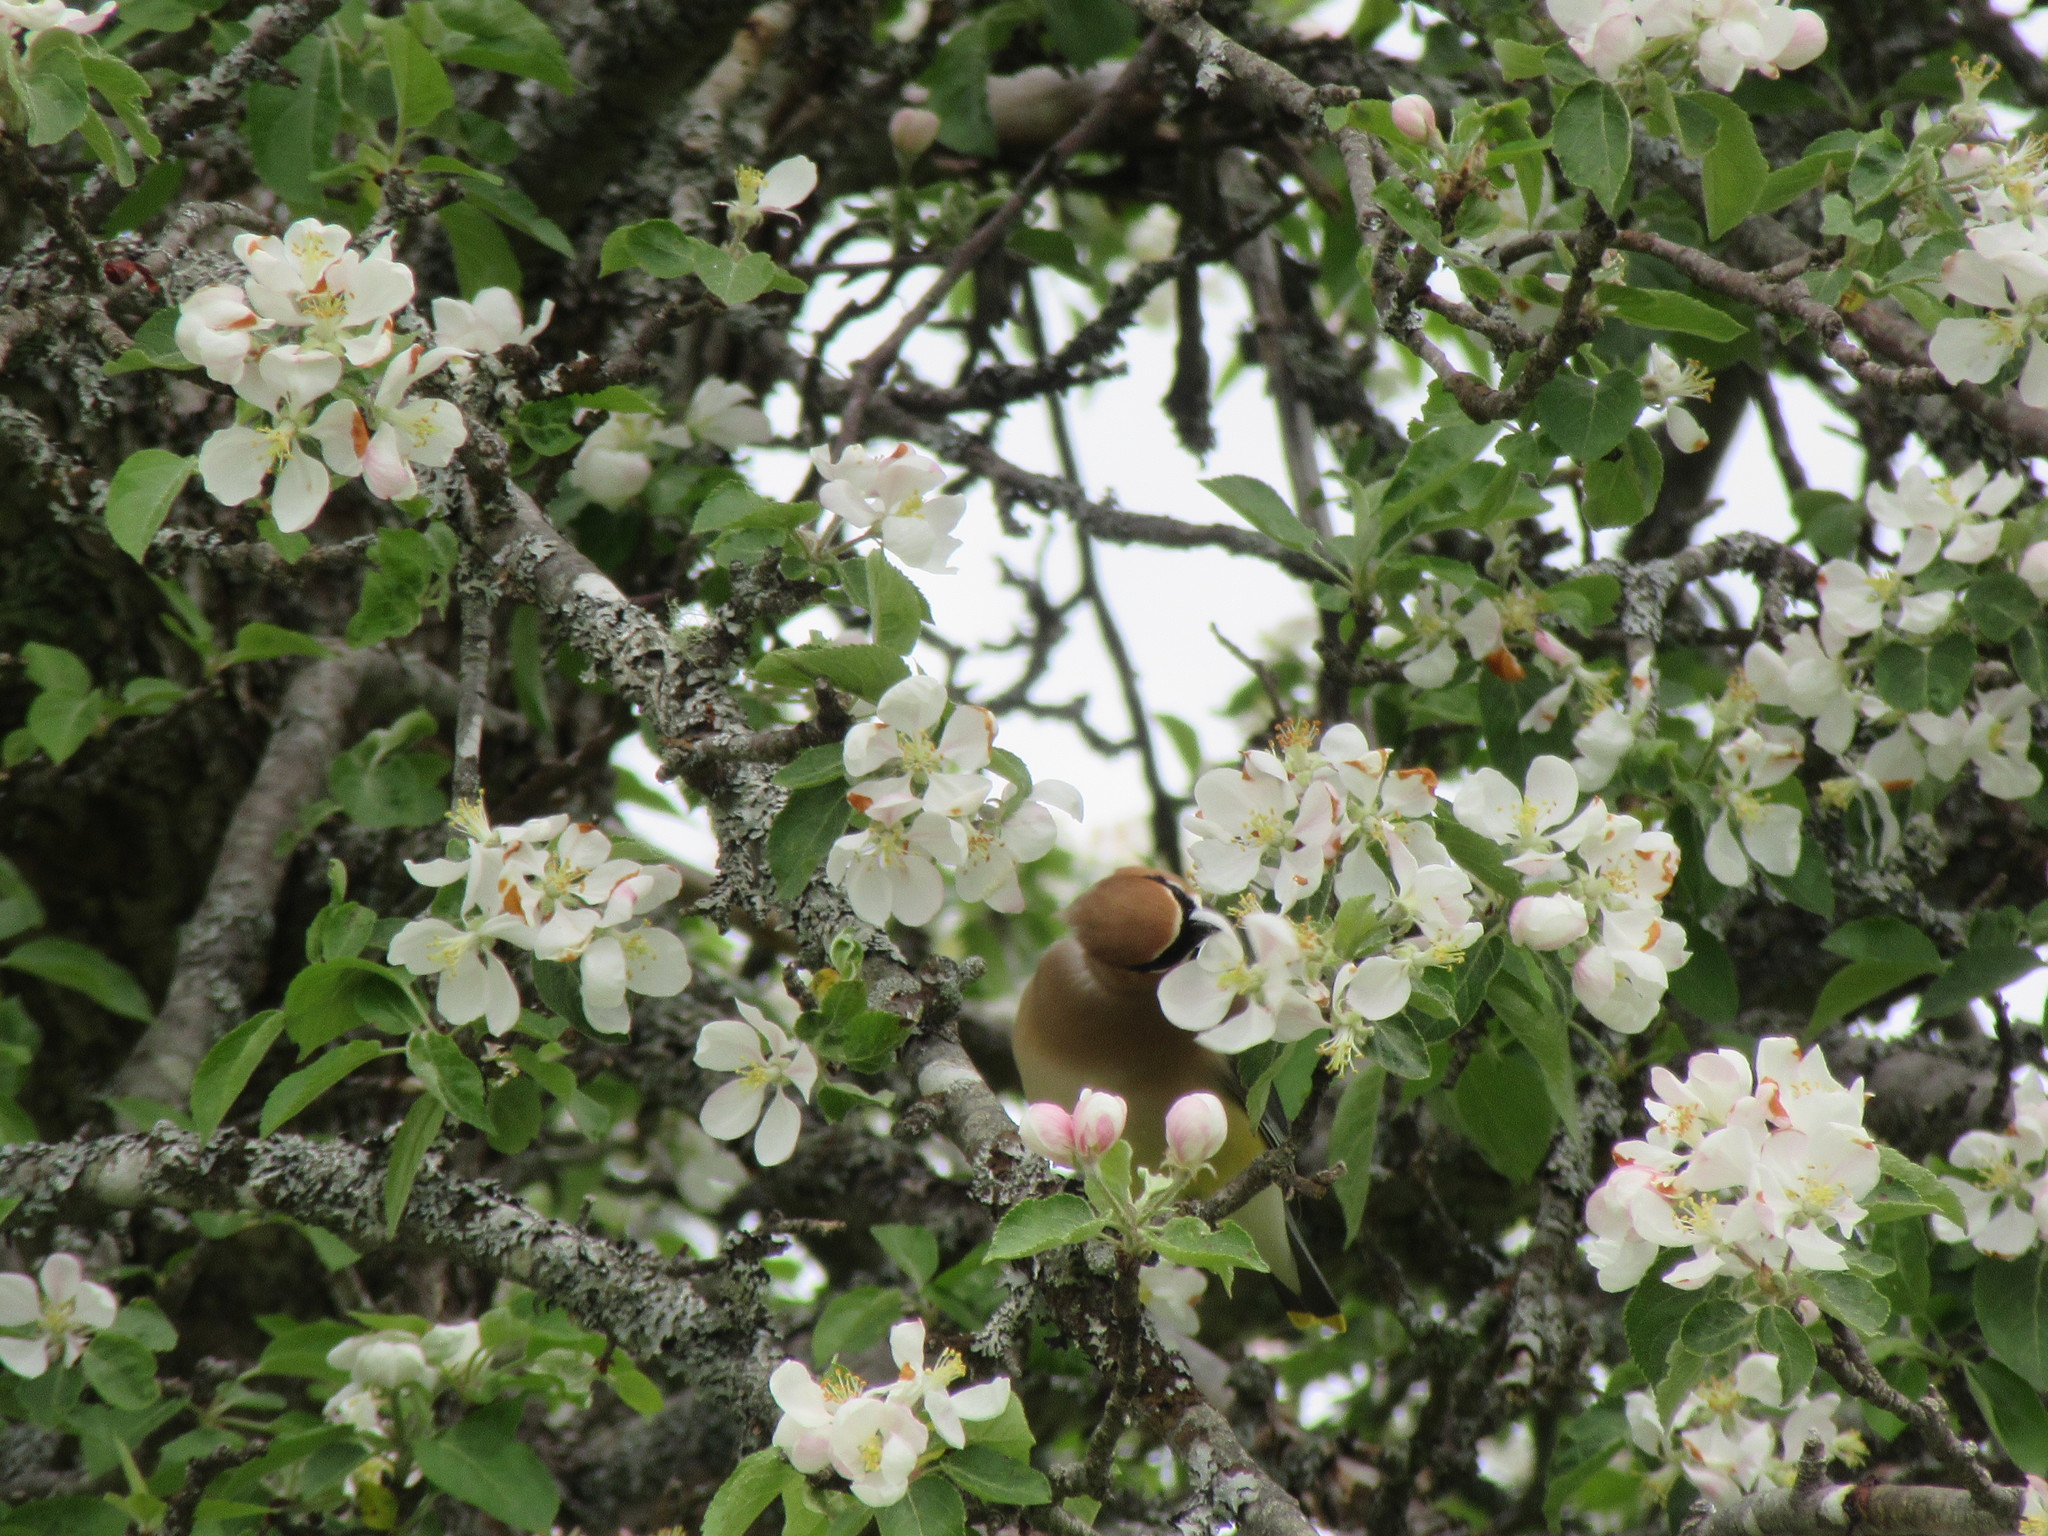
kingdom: Animalia
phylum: Chordata
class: Aves
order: Passeriformes
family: Bombycillidae
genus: Bombycilla
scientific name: Bombycilla cedrorum
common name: Cedar waxwing
